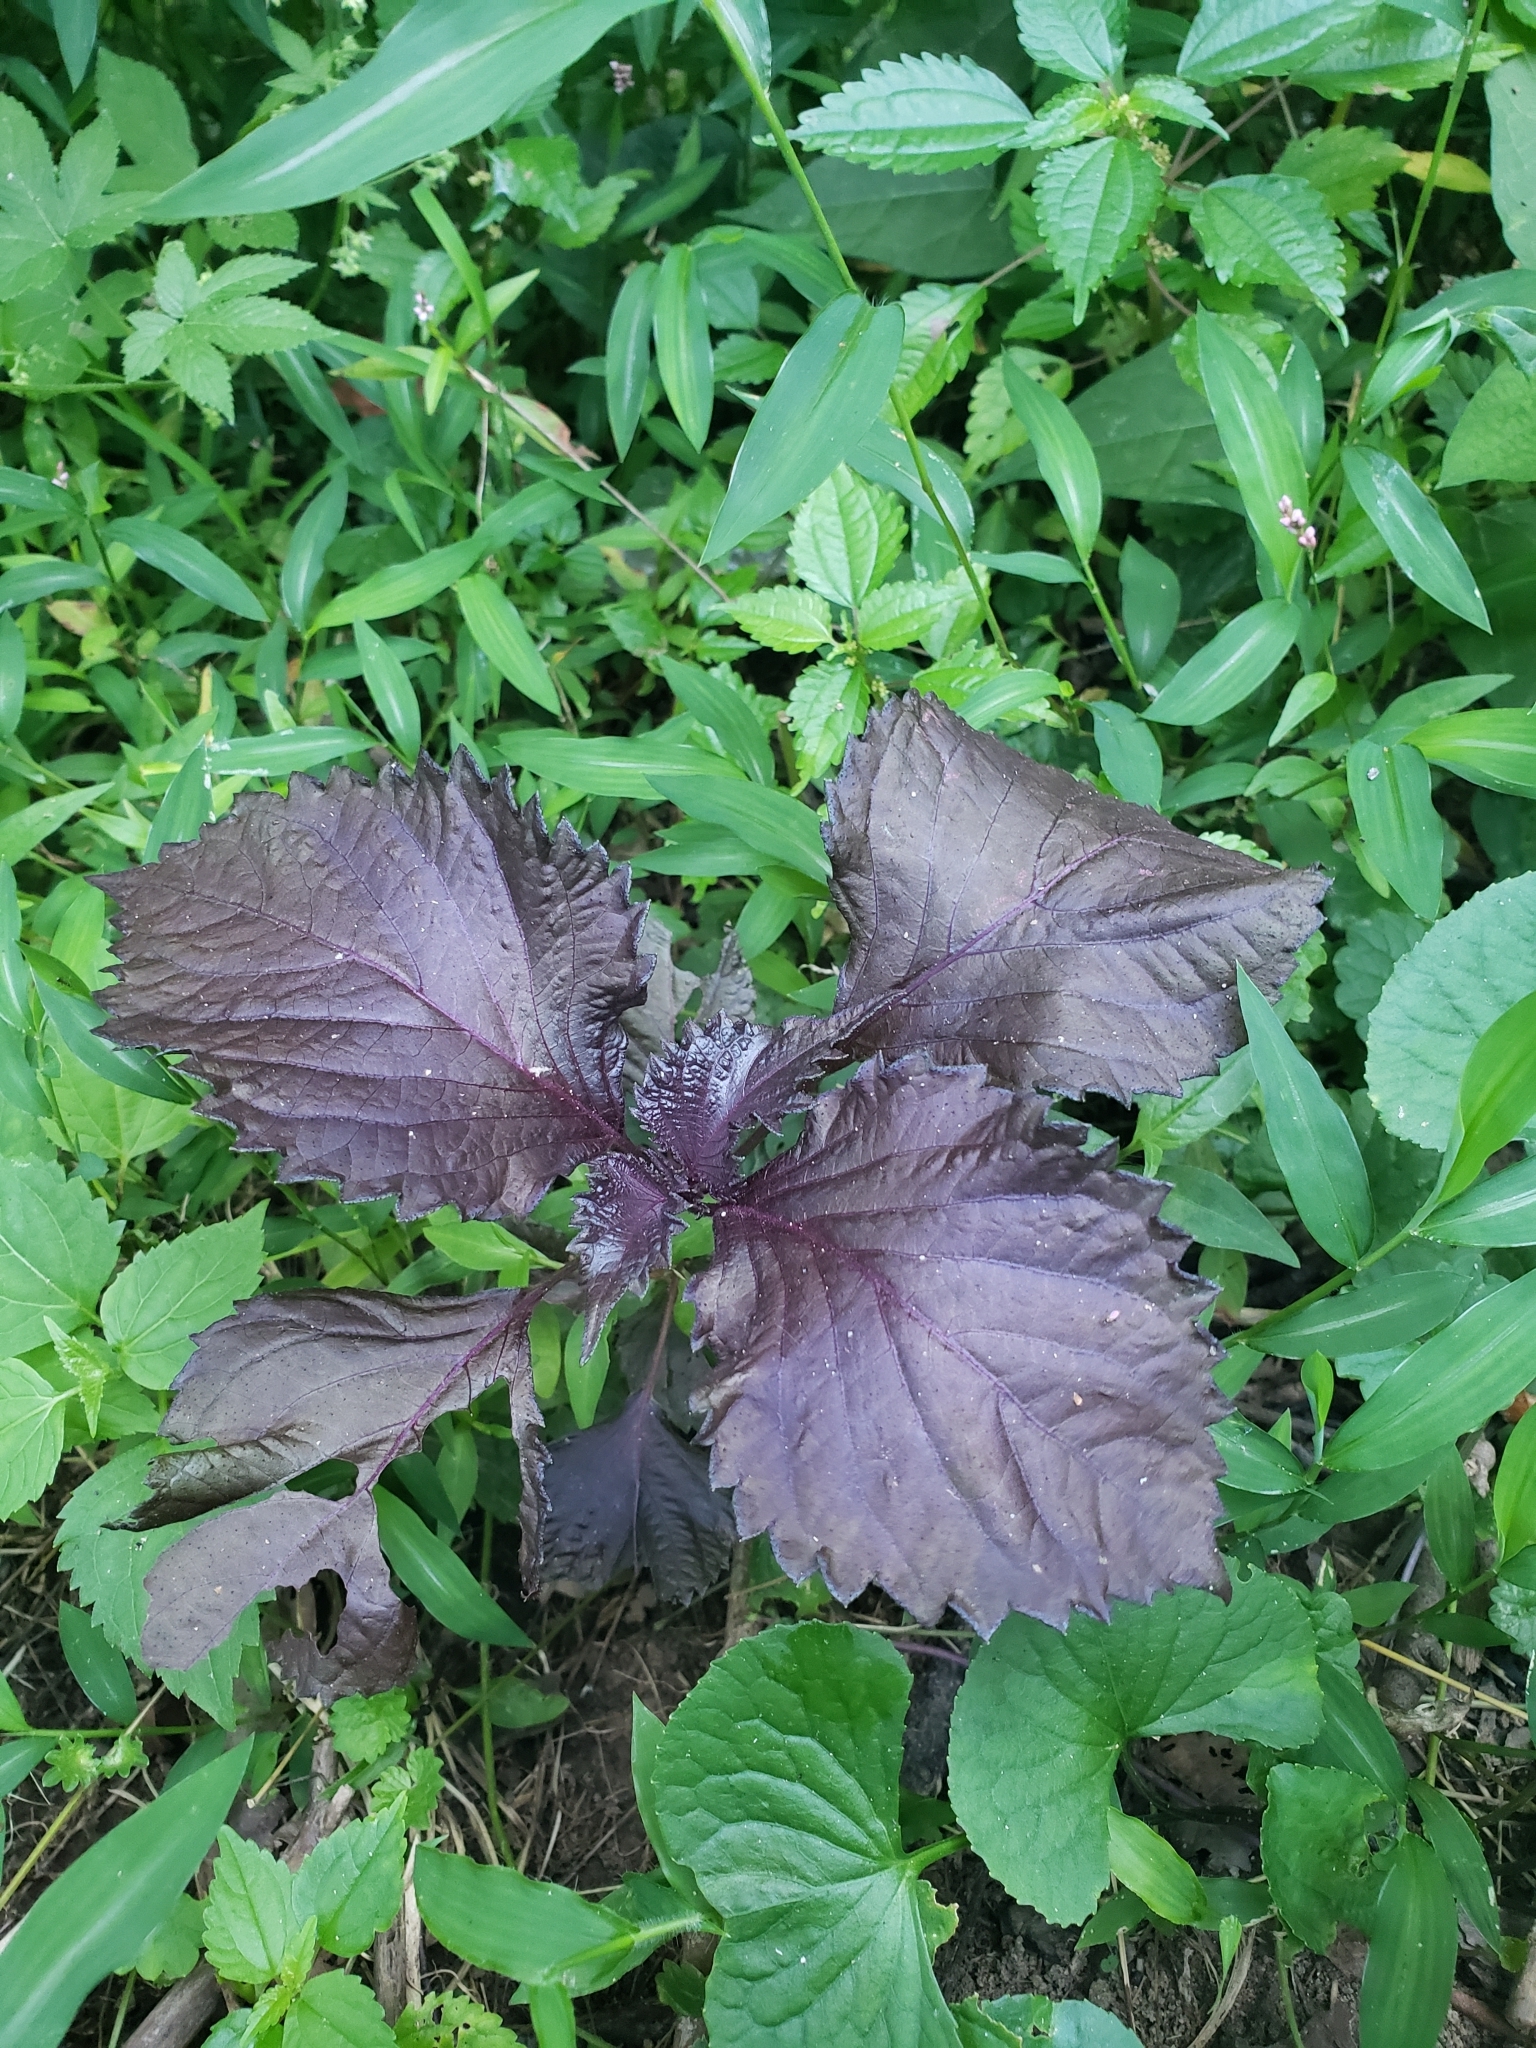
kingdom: Plantae
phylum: Tracheophyta
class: Magnoliopsida
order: Lamiales
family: Lamiaceae
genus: Perilla
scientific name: Perilla frutescens
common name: Perilla
